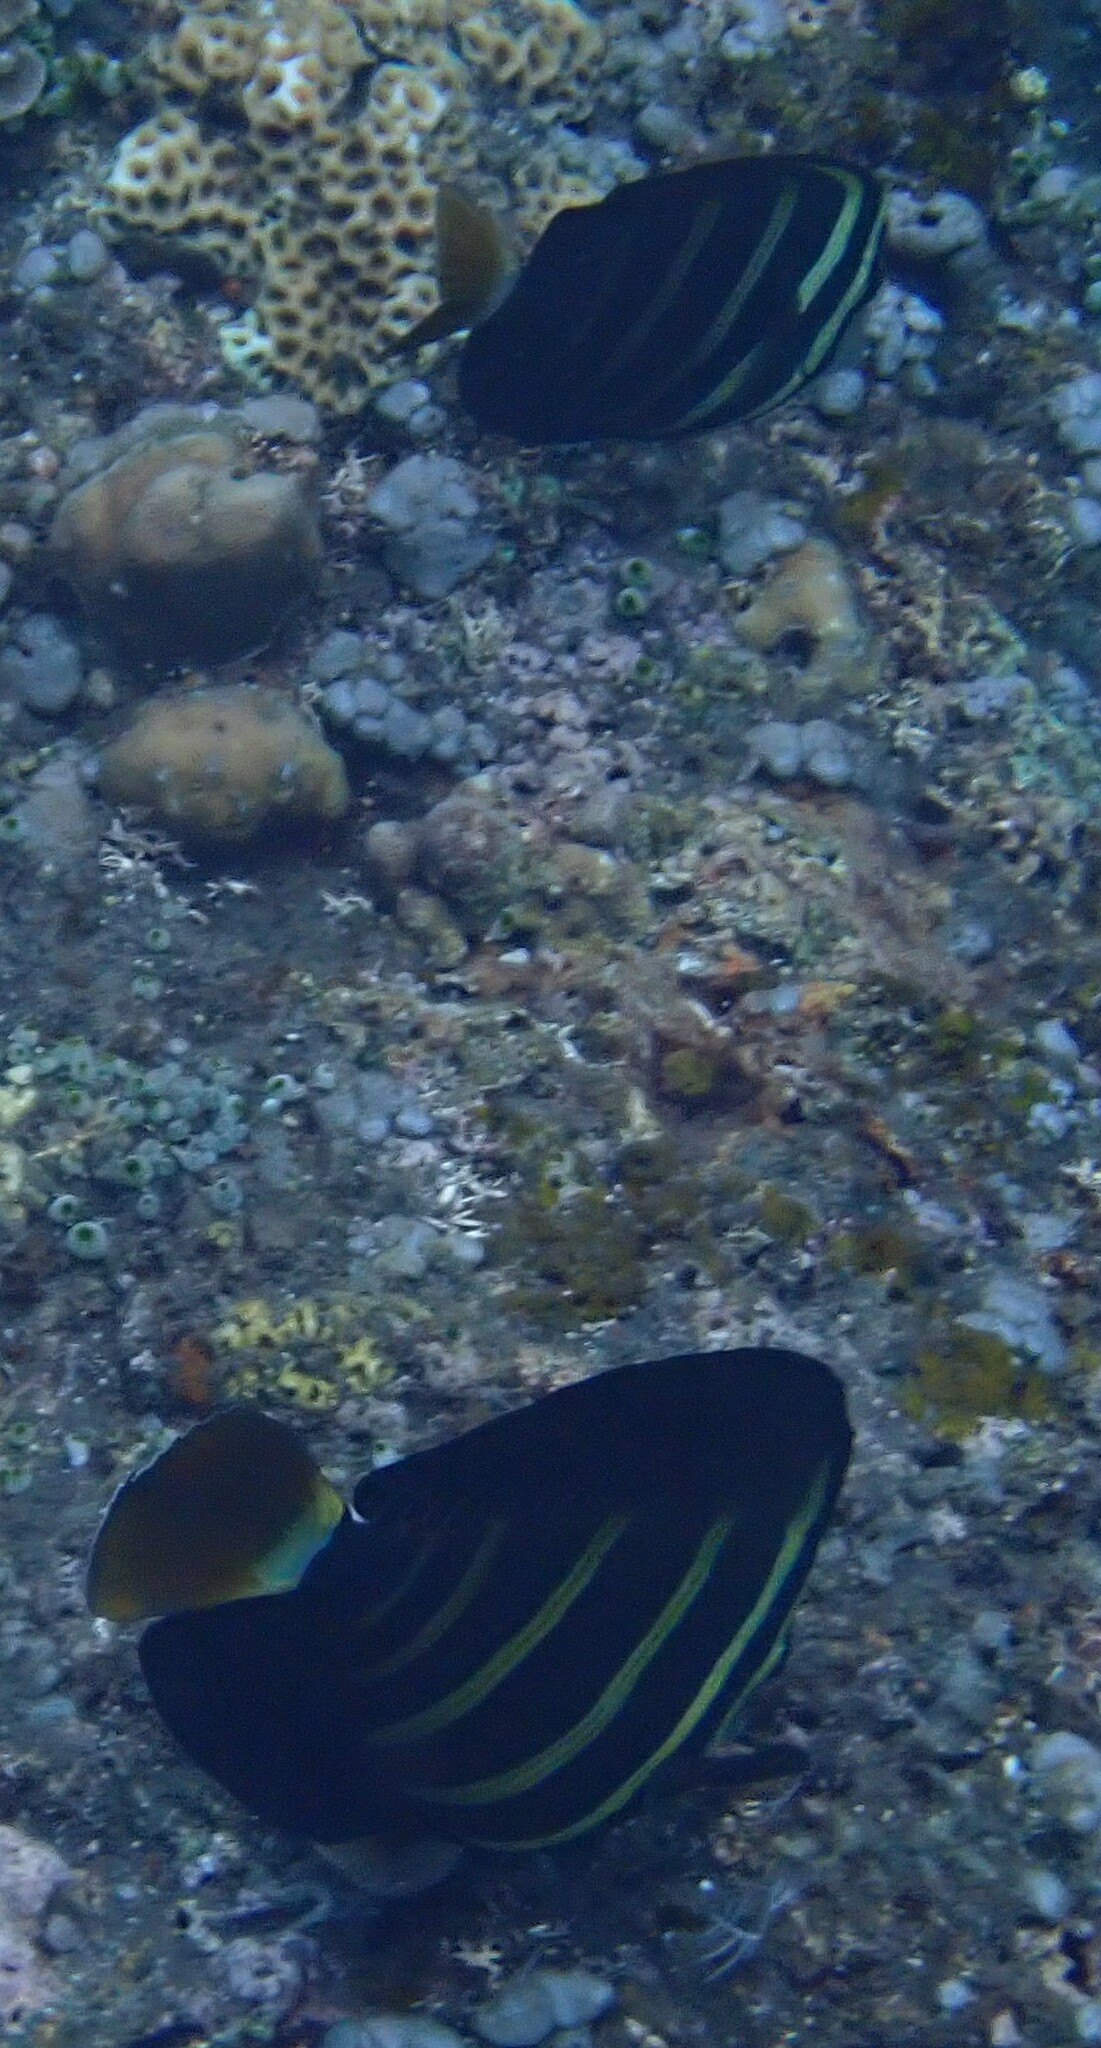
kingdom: Animalia
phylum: Chordata
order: Perciformes
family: Acanthuridae
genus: Zebrasoma
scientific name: Zebrasoma veliferum
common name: Sailfin surgeonfish
